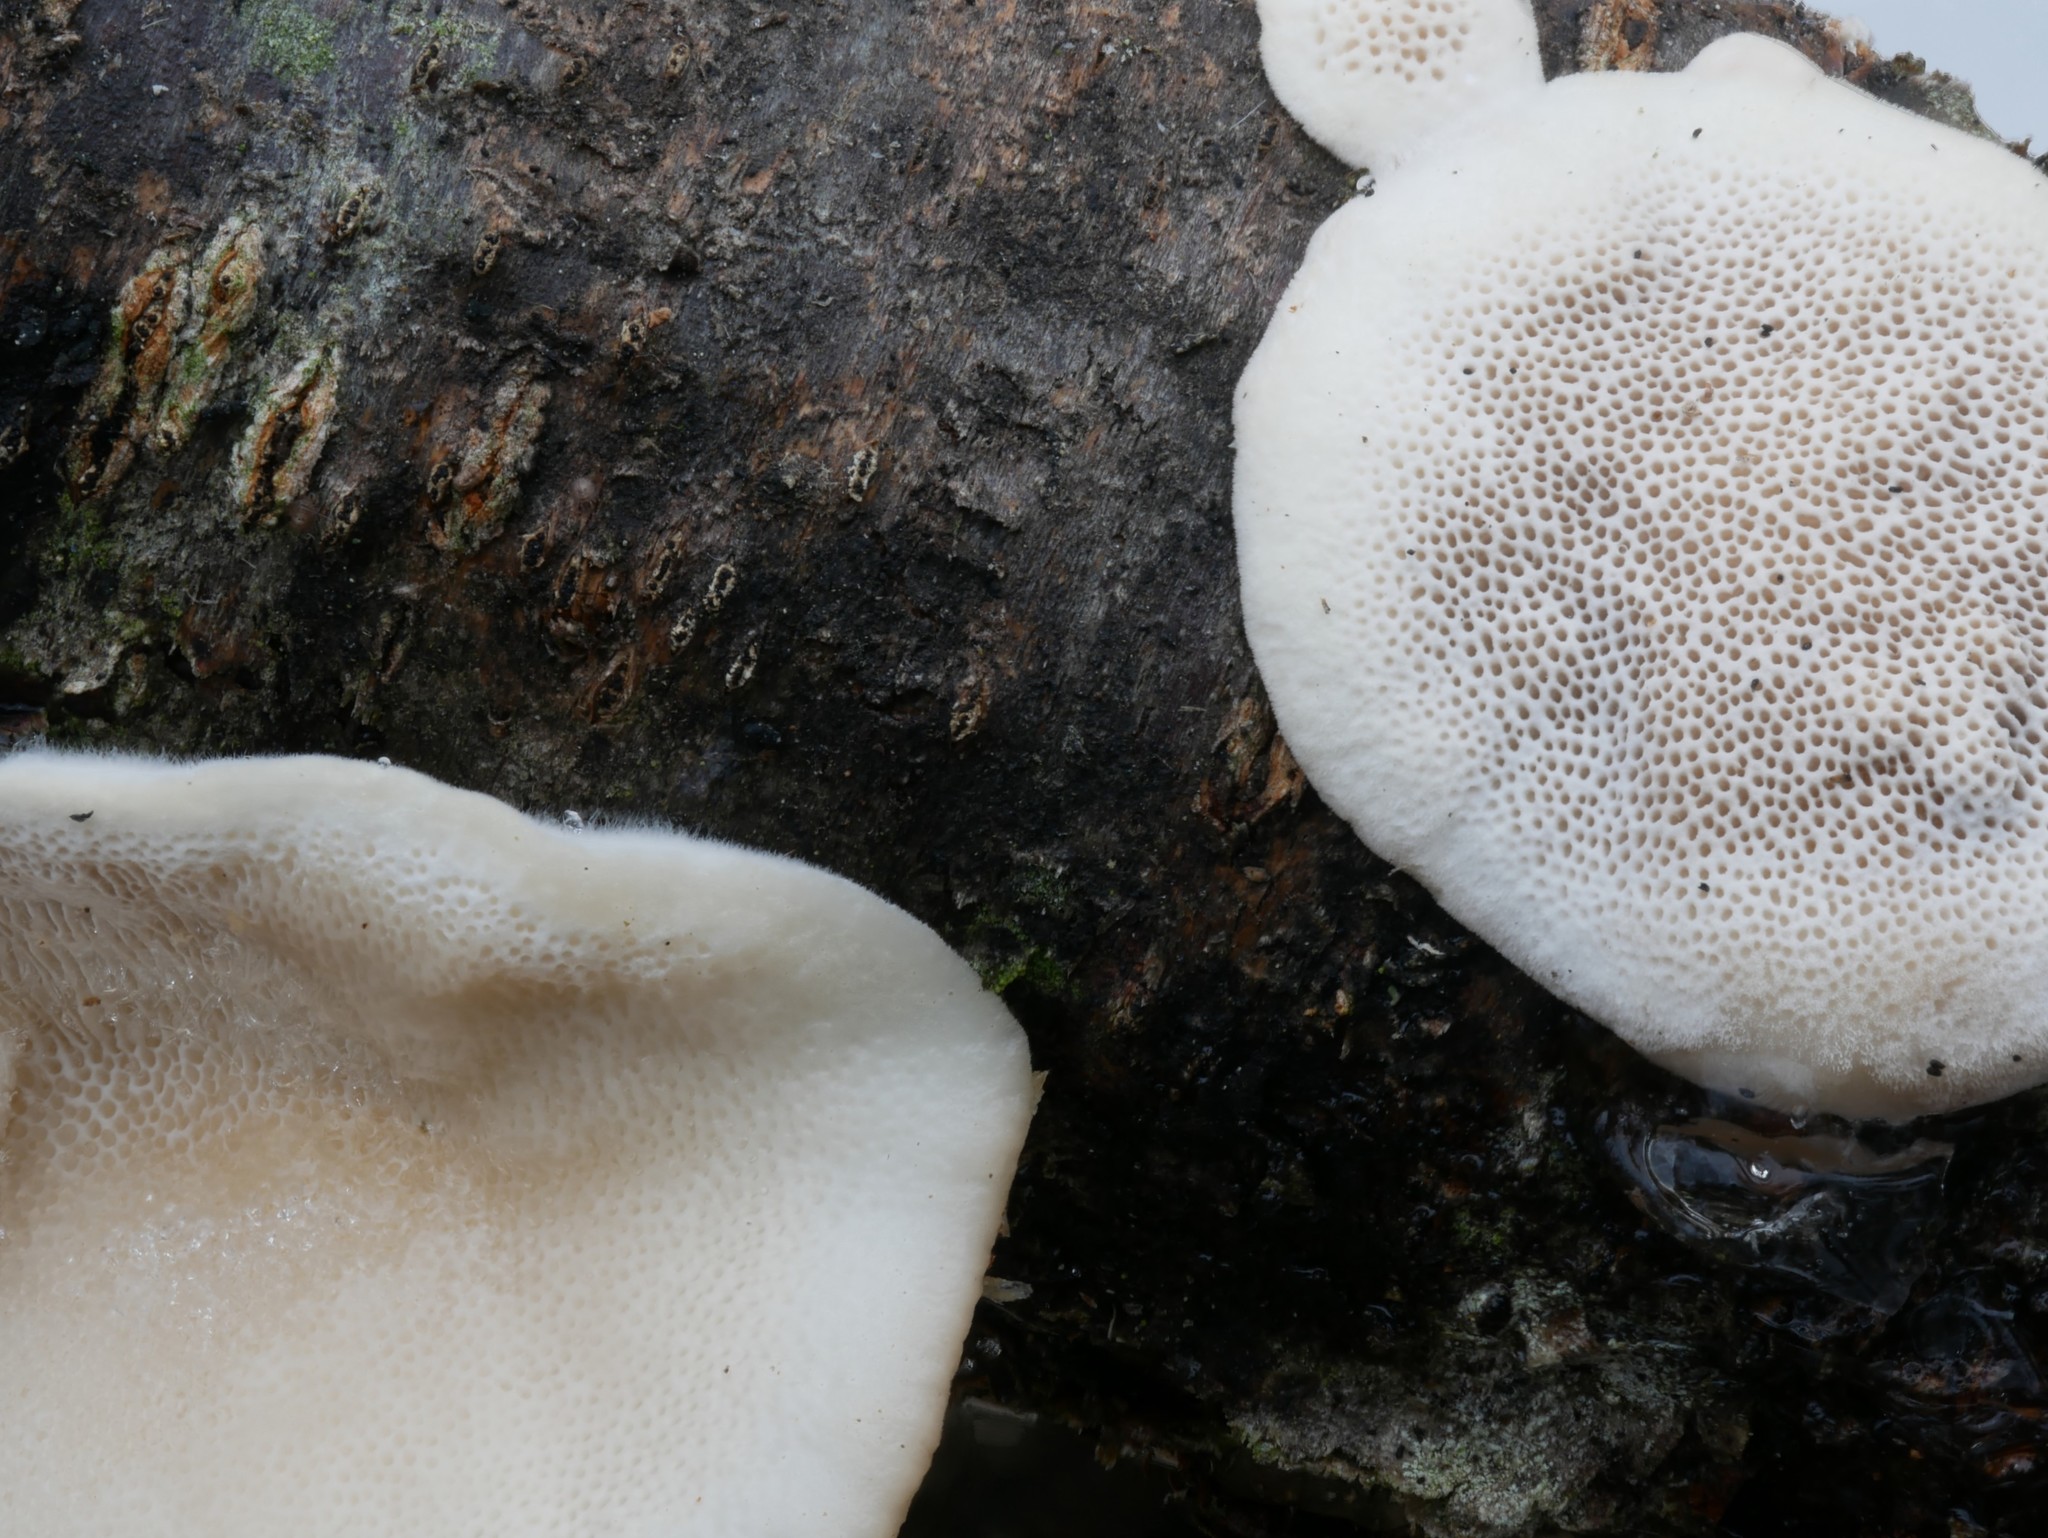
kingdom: Fungi
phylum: Basidiomycota
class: Agaricomycetes
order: Polyporales
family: Polyporaceae
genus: Trametes
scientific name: Trametes hirsuta
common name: Hairy bracket
